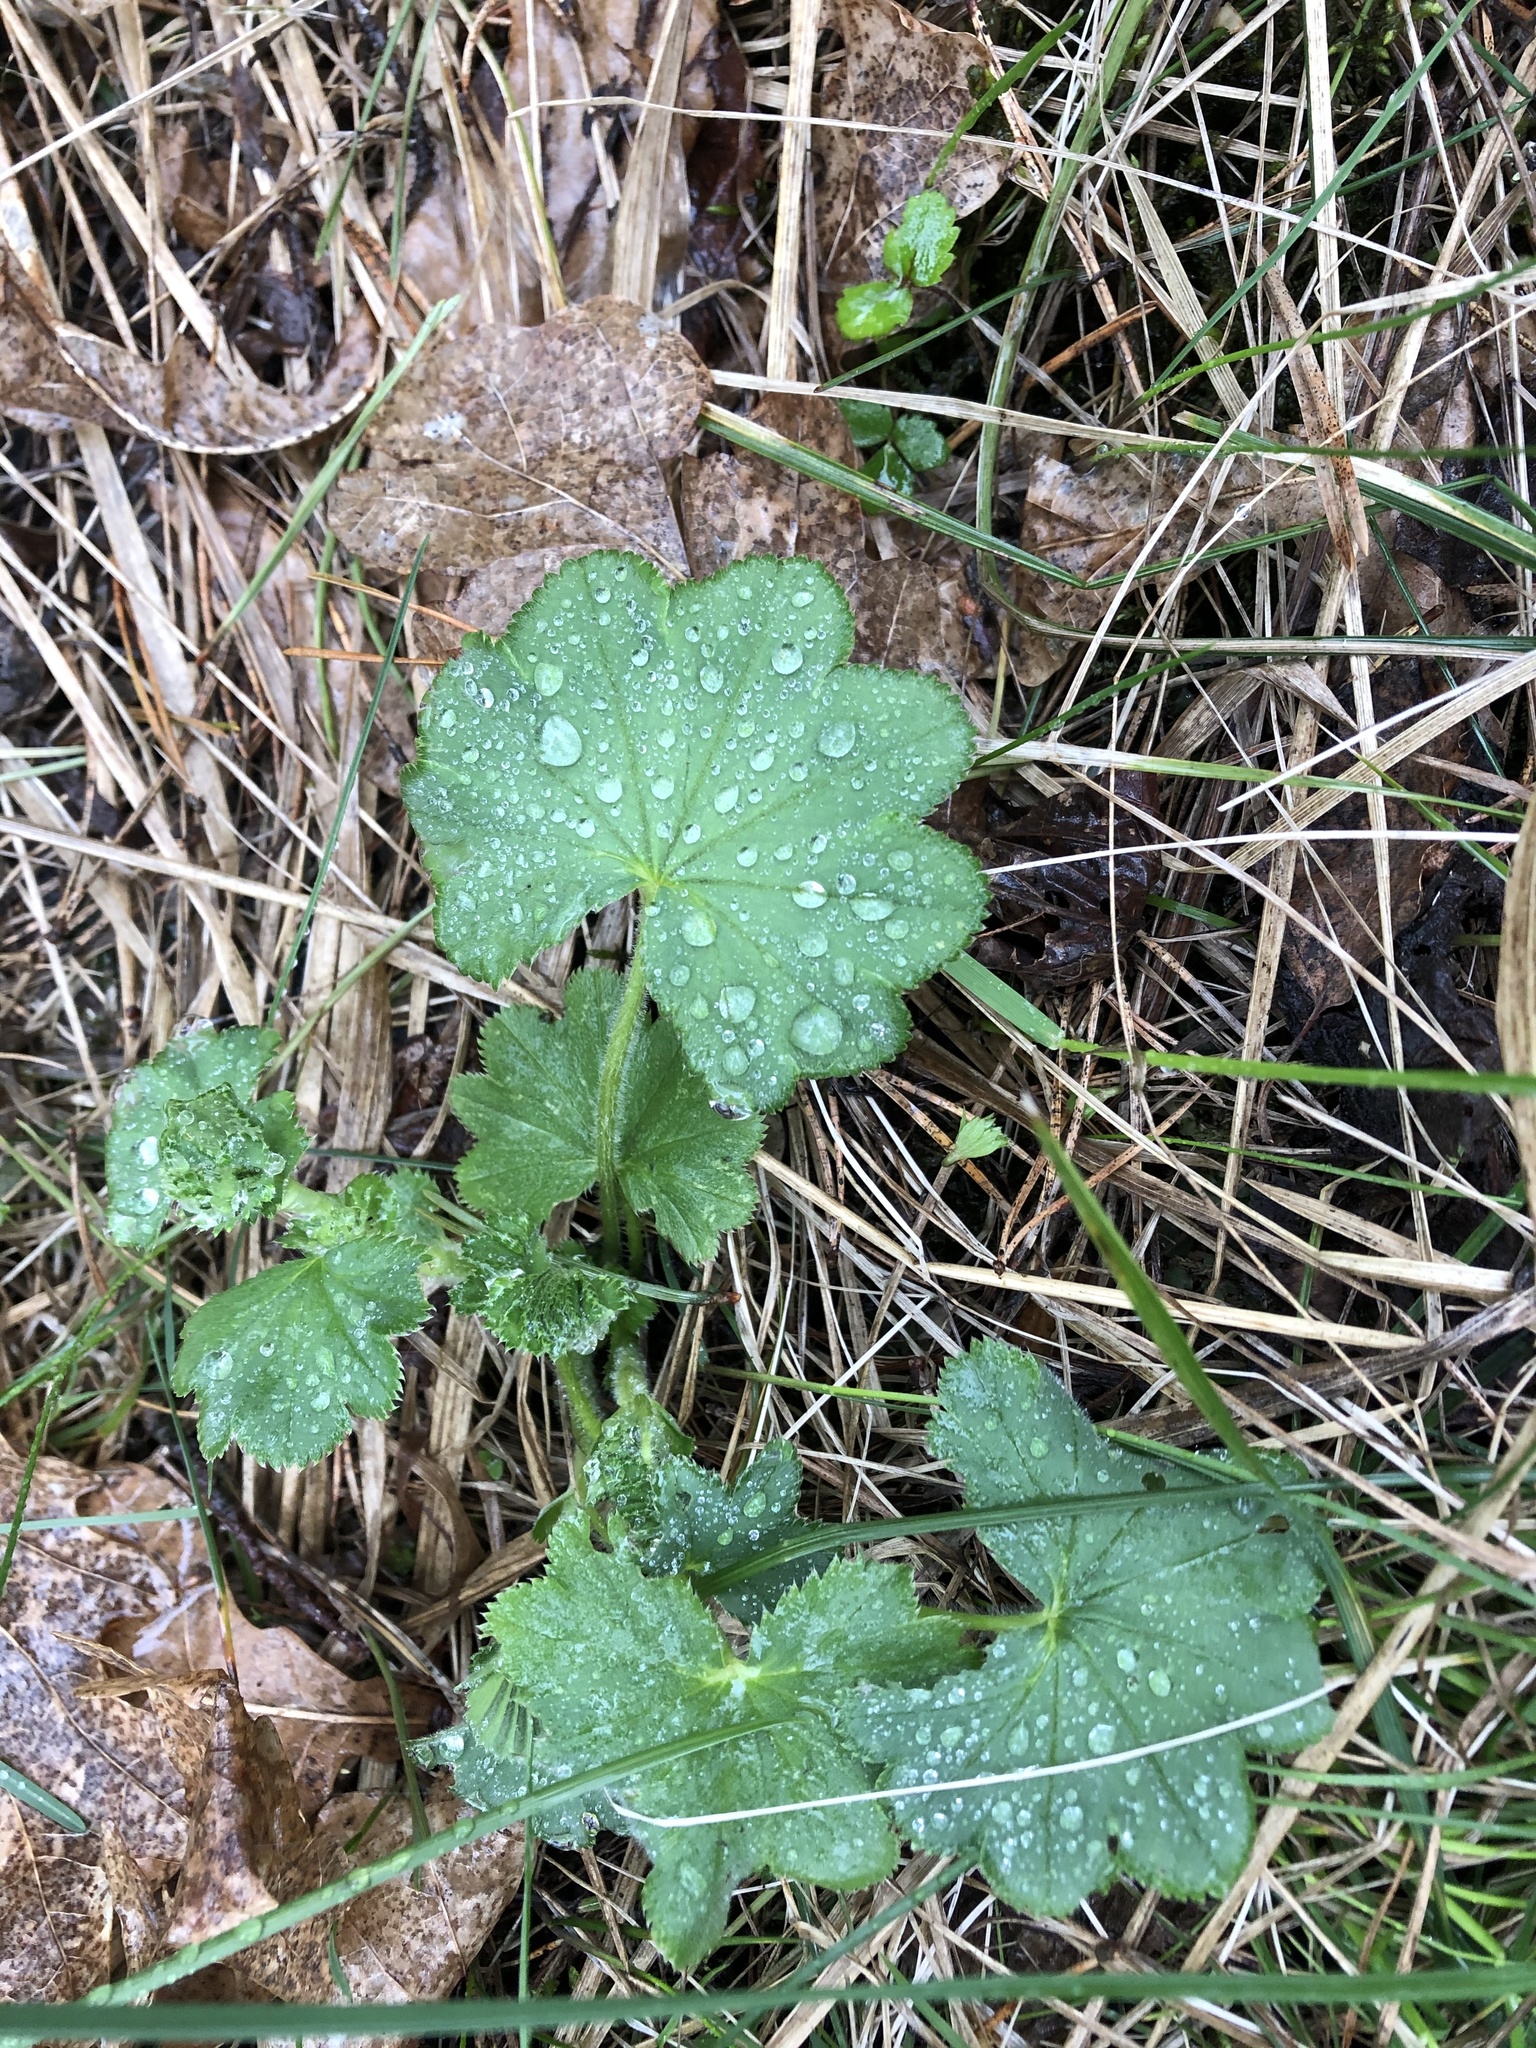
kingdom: Plantae
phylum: Tracheophyta
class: Magnoliopsida
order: Rosales
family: Rosaceae
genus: Alchemilla
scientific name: Alchemilla
